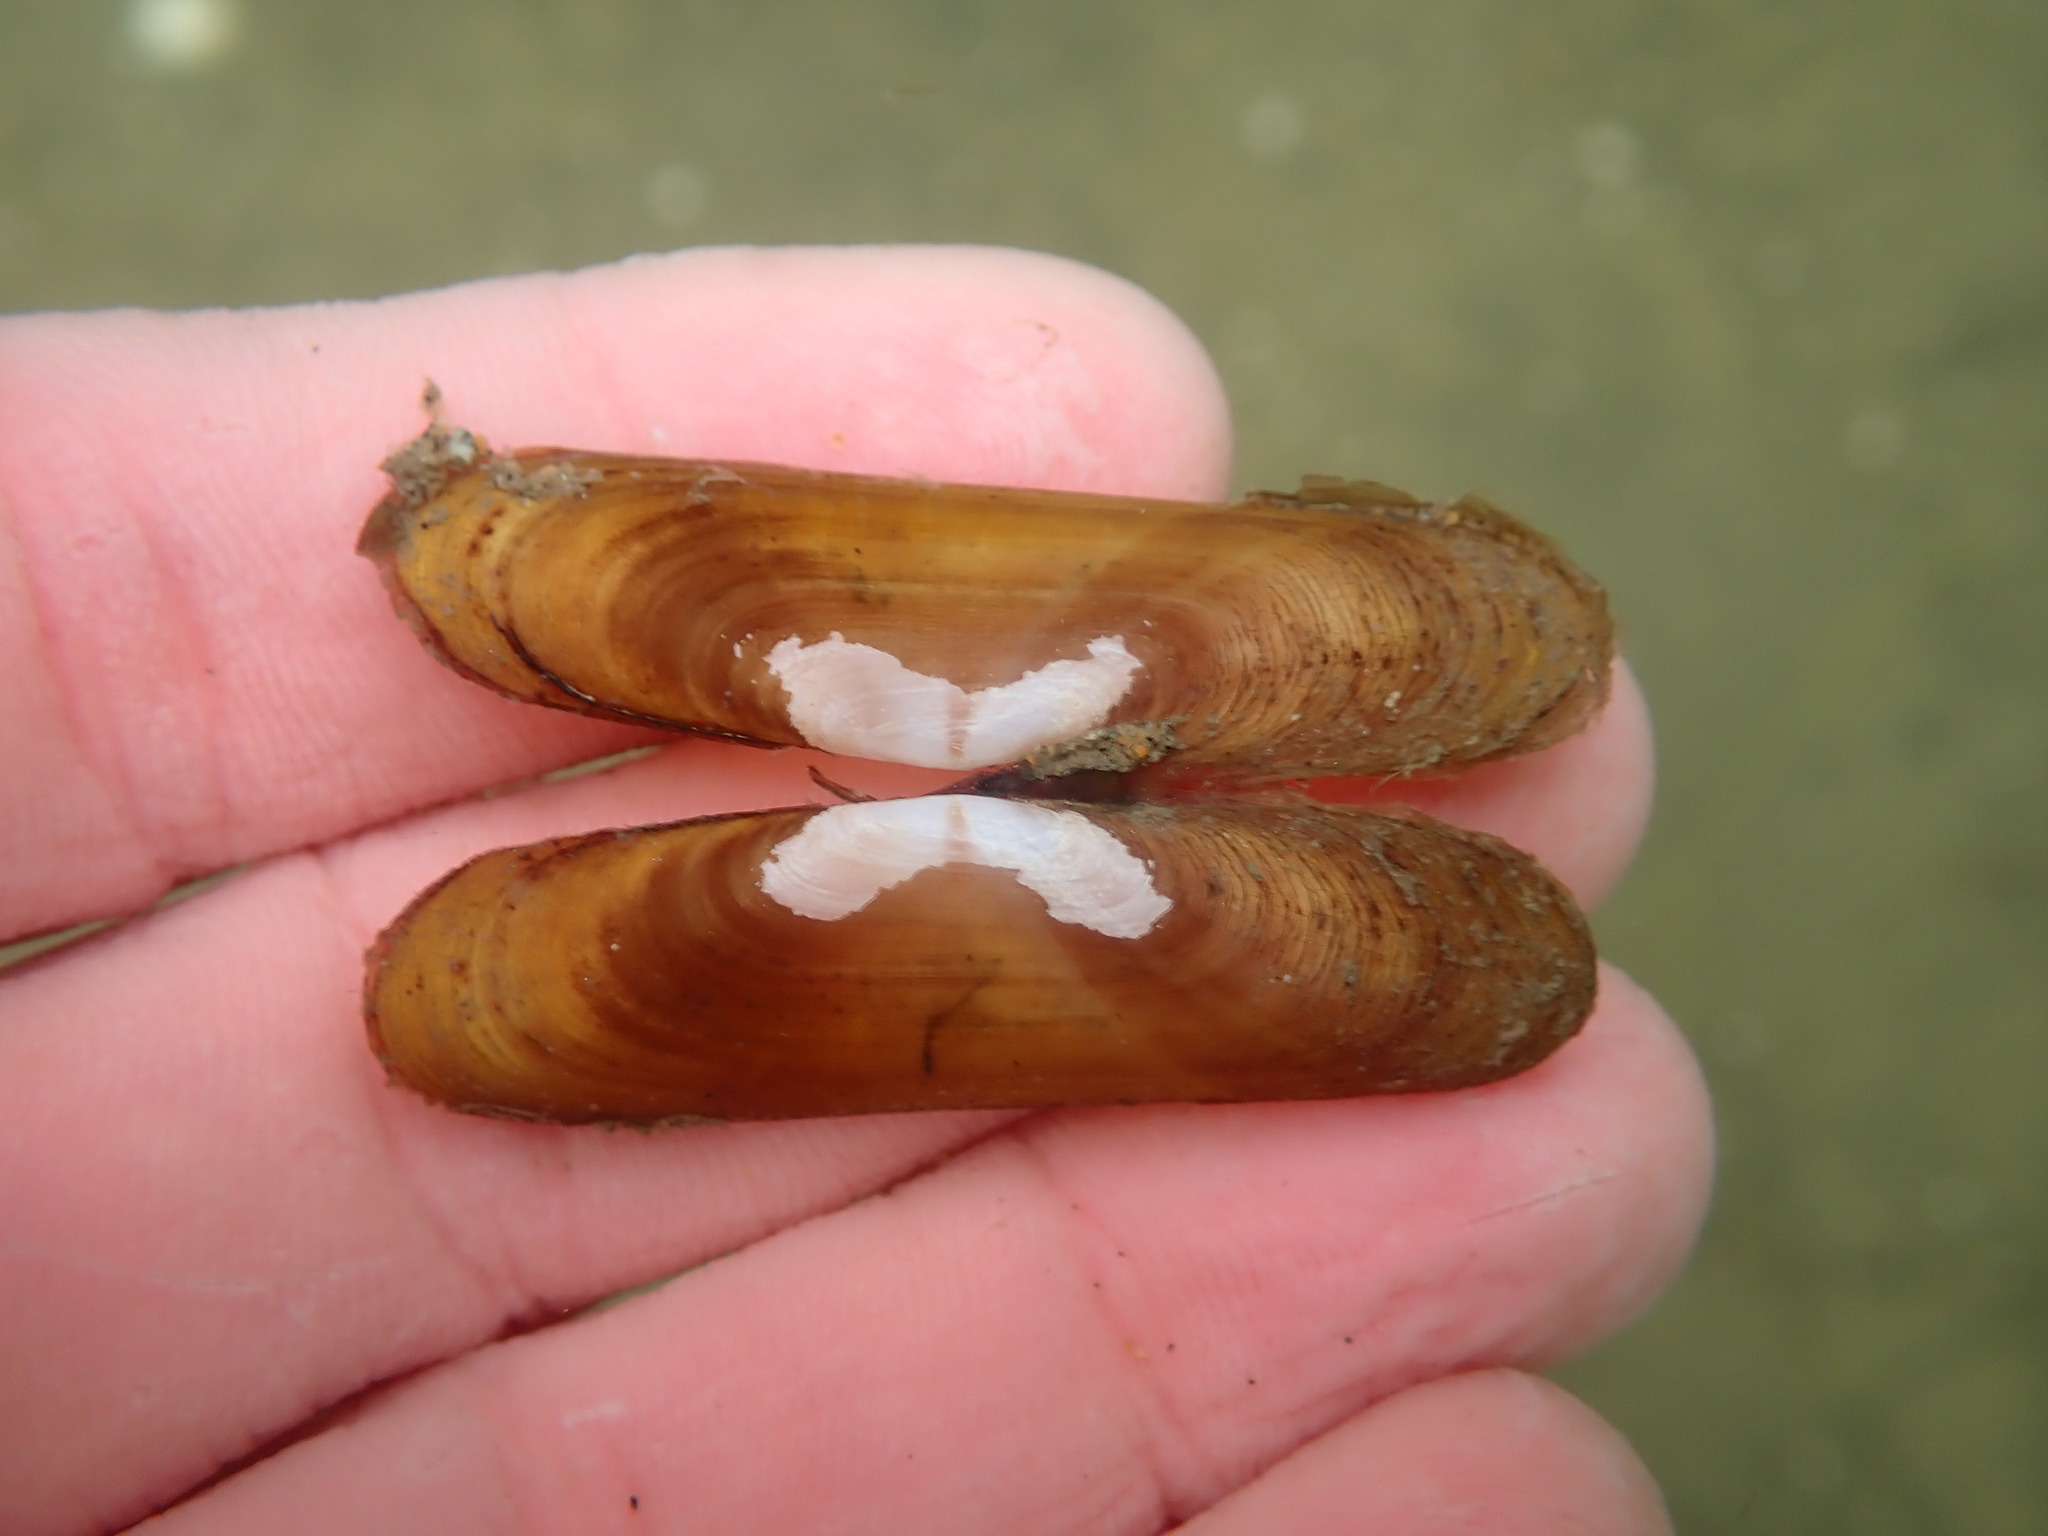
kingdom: Animalia
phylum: Mollusca
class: Bivalvia
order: Cardiida
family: Solecurtidae
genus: Tagelus
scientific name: Tagelus subteres
